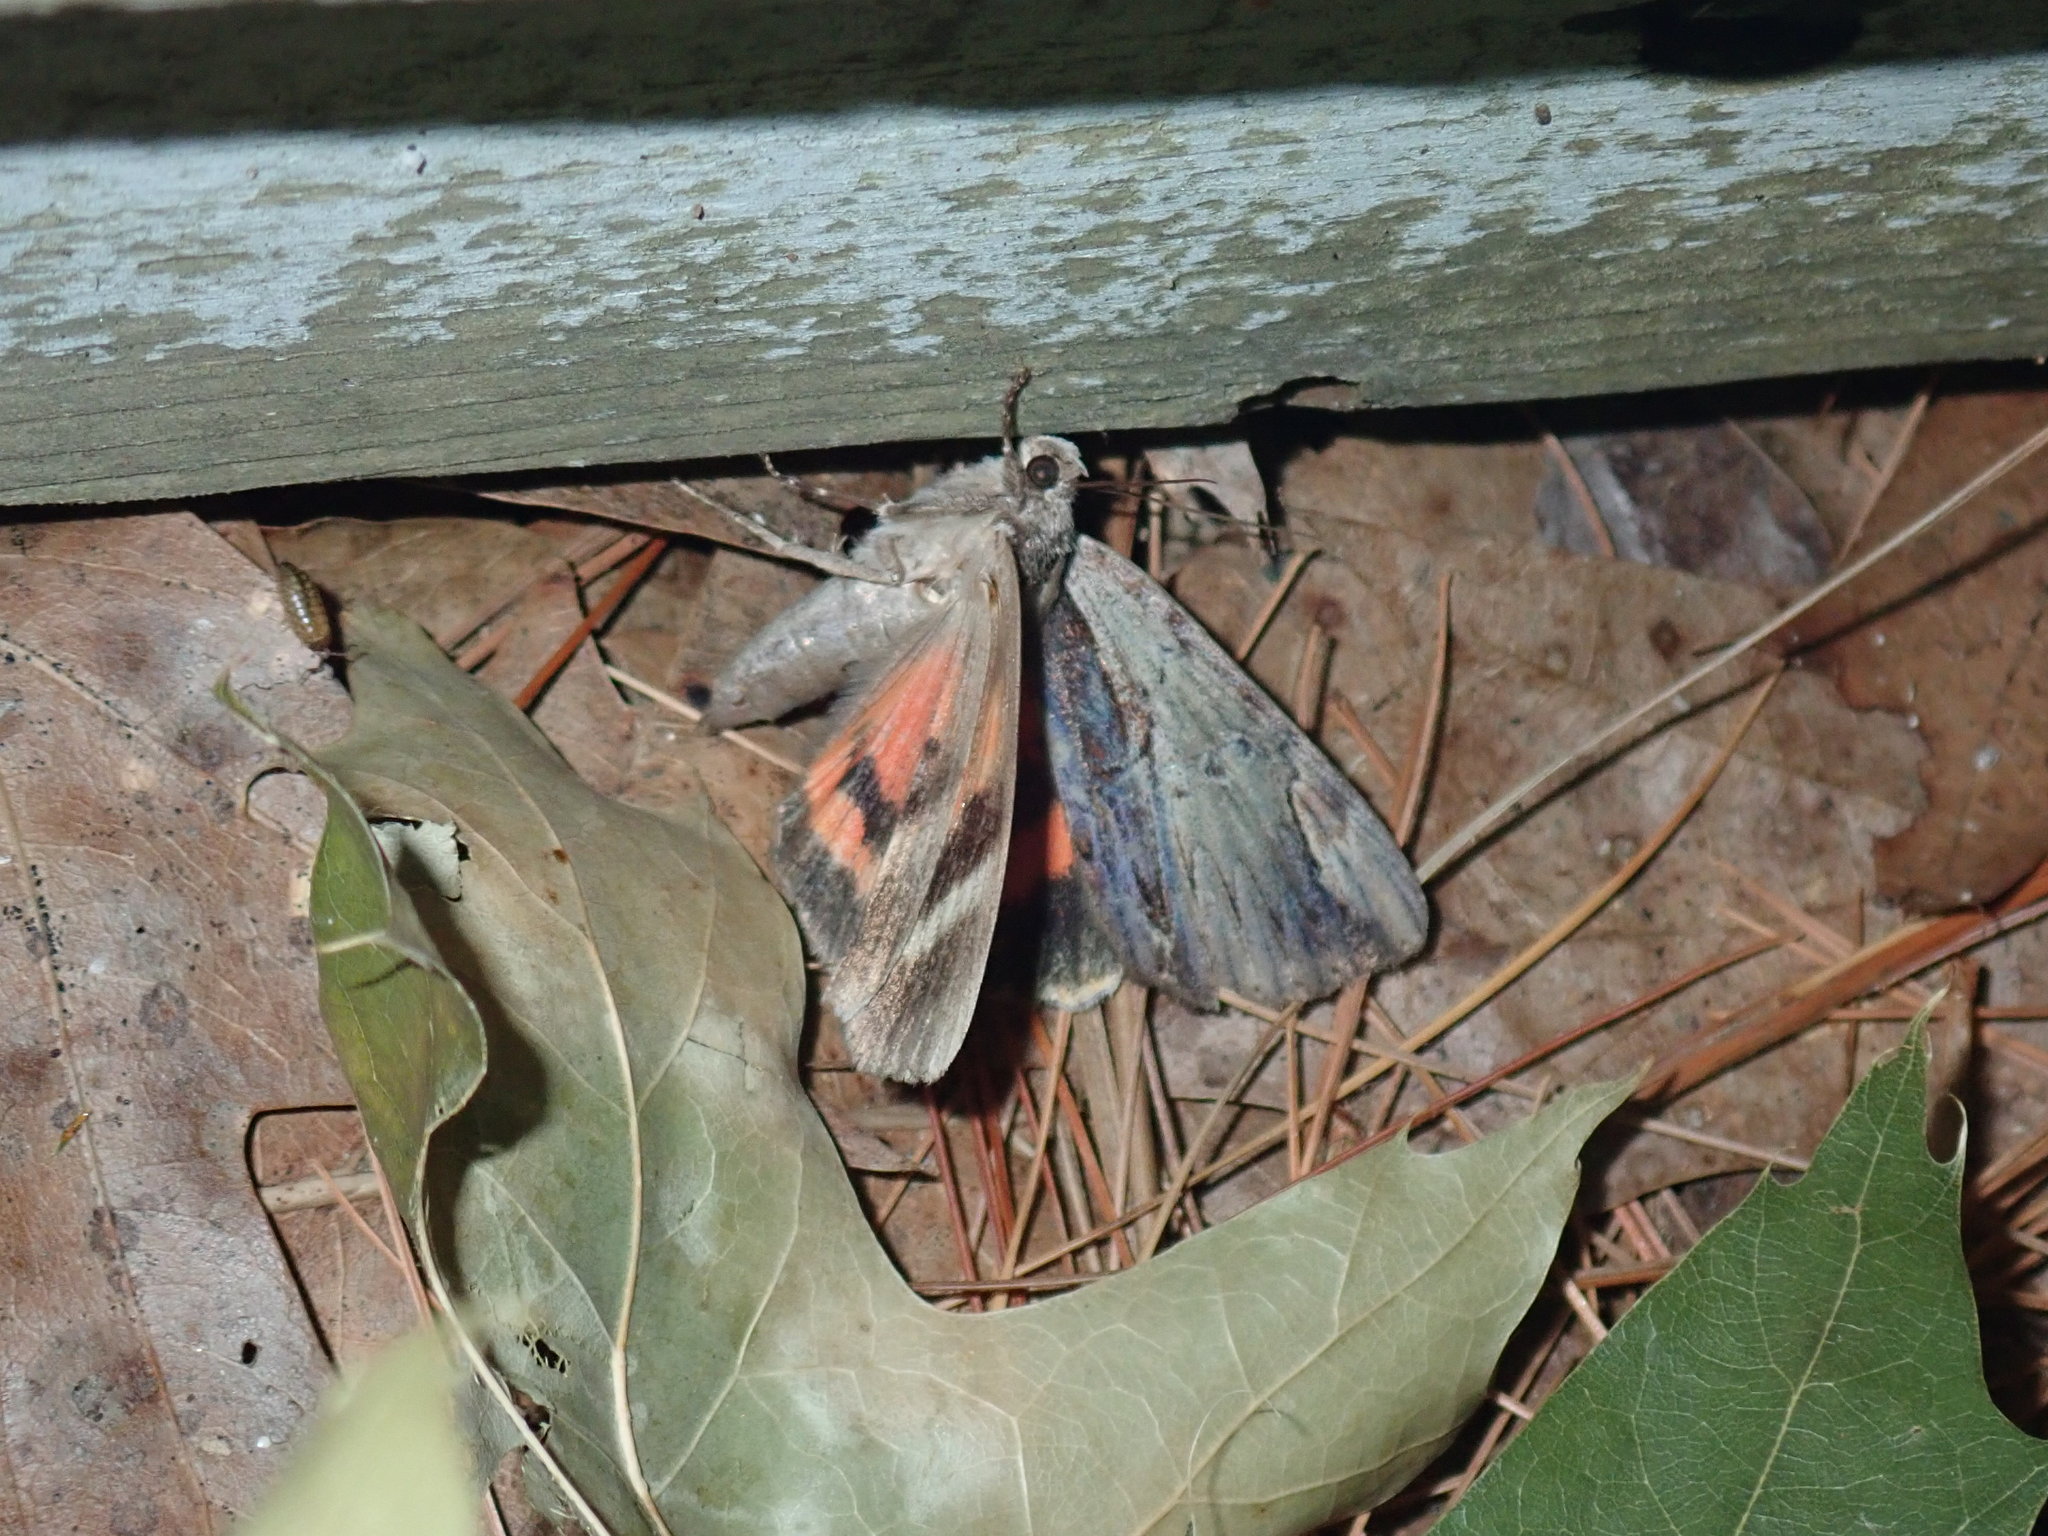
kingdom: Animalia
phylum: Arthropoda
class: Insecta
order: Lepidoptera
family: Erebidae
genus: Catocala
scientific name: Catocala ultronia
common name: Ultronia underwing
